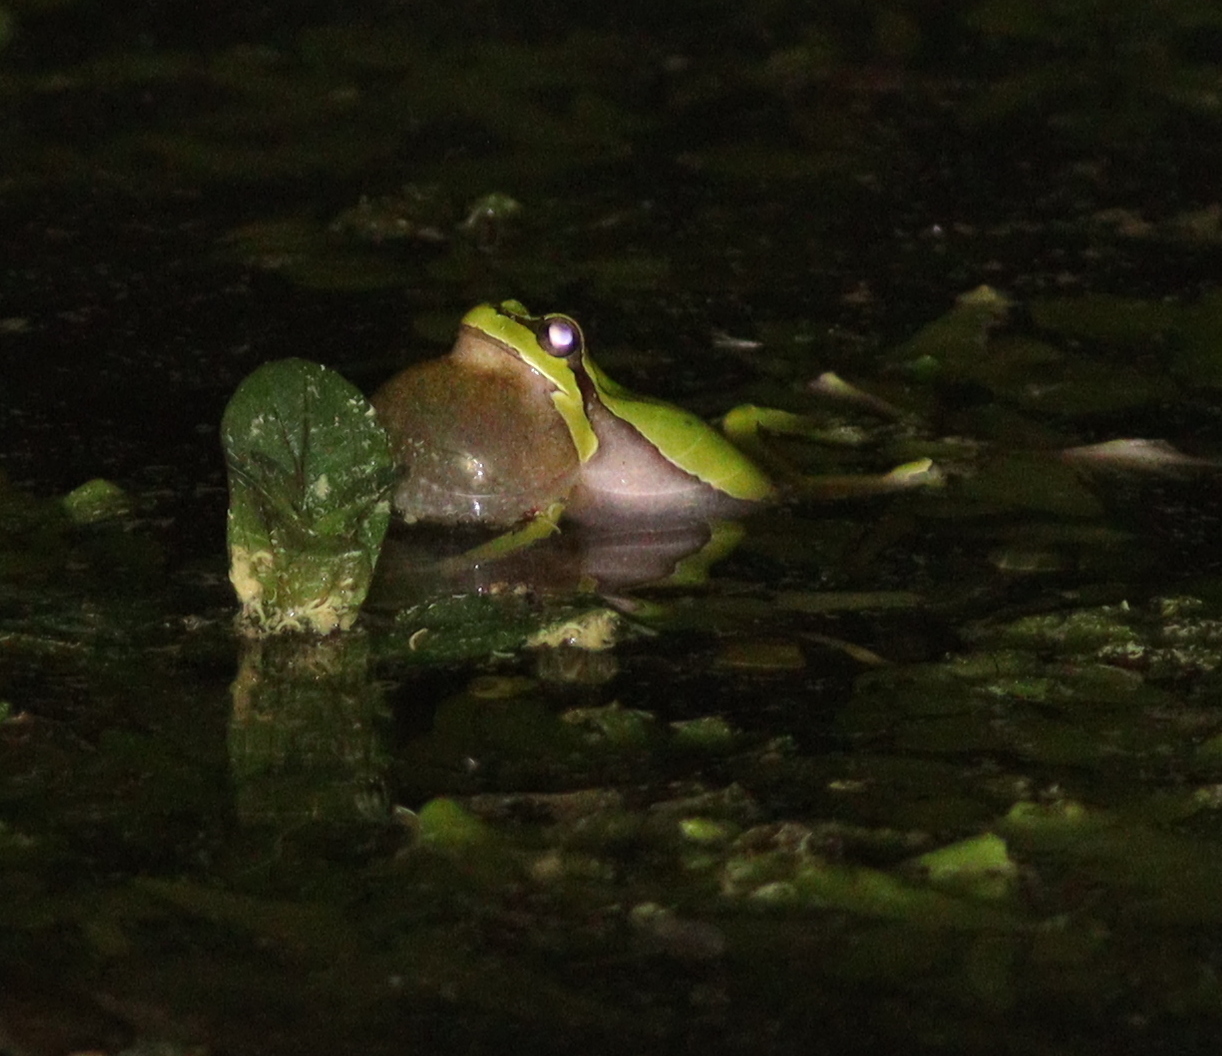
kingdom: Animalia
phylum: Chordata
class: Amphibia
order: Anura
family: Hylidae
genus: Hyla
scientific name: Hyla orientalis
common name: Caucasian treefrog
